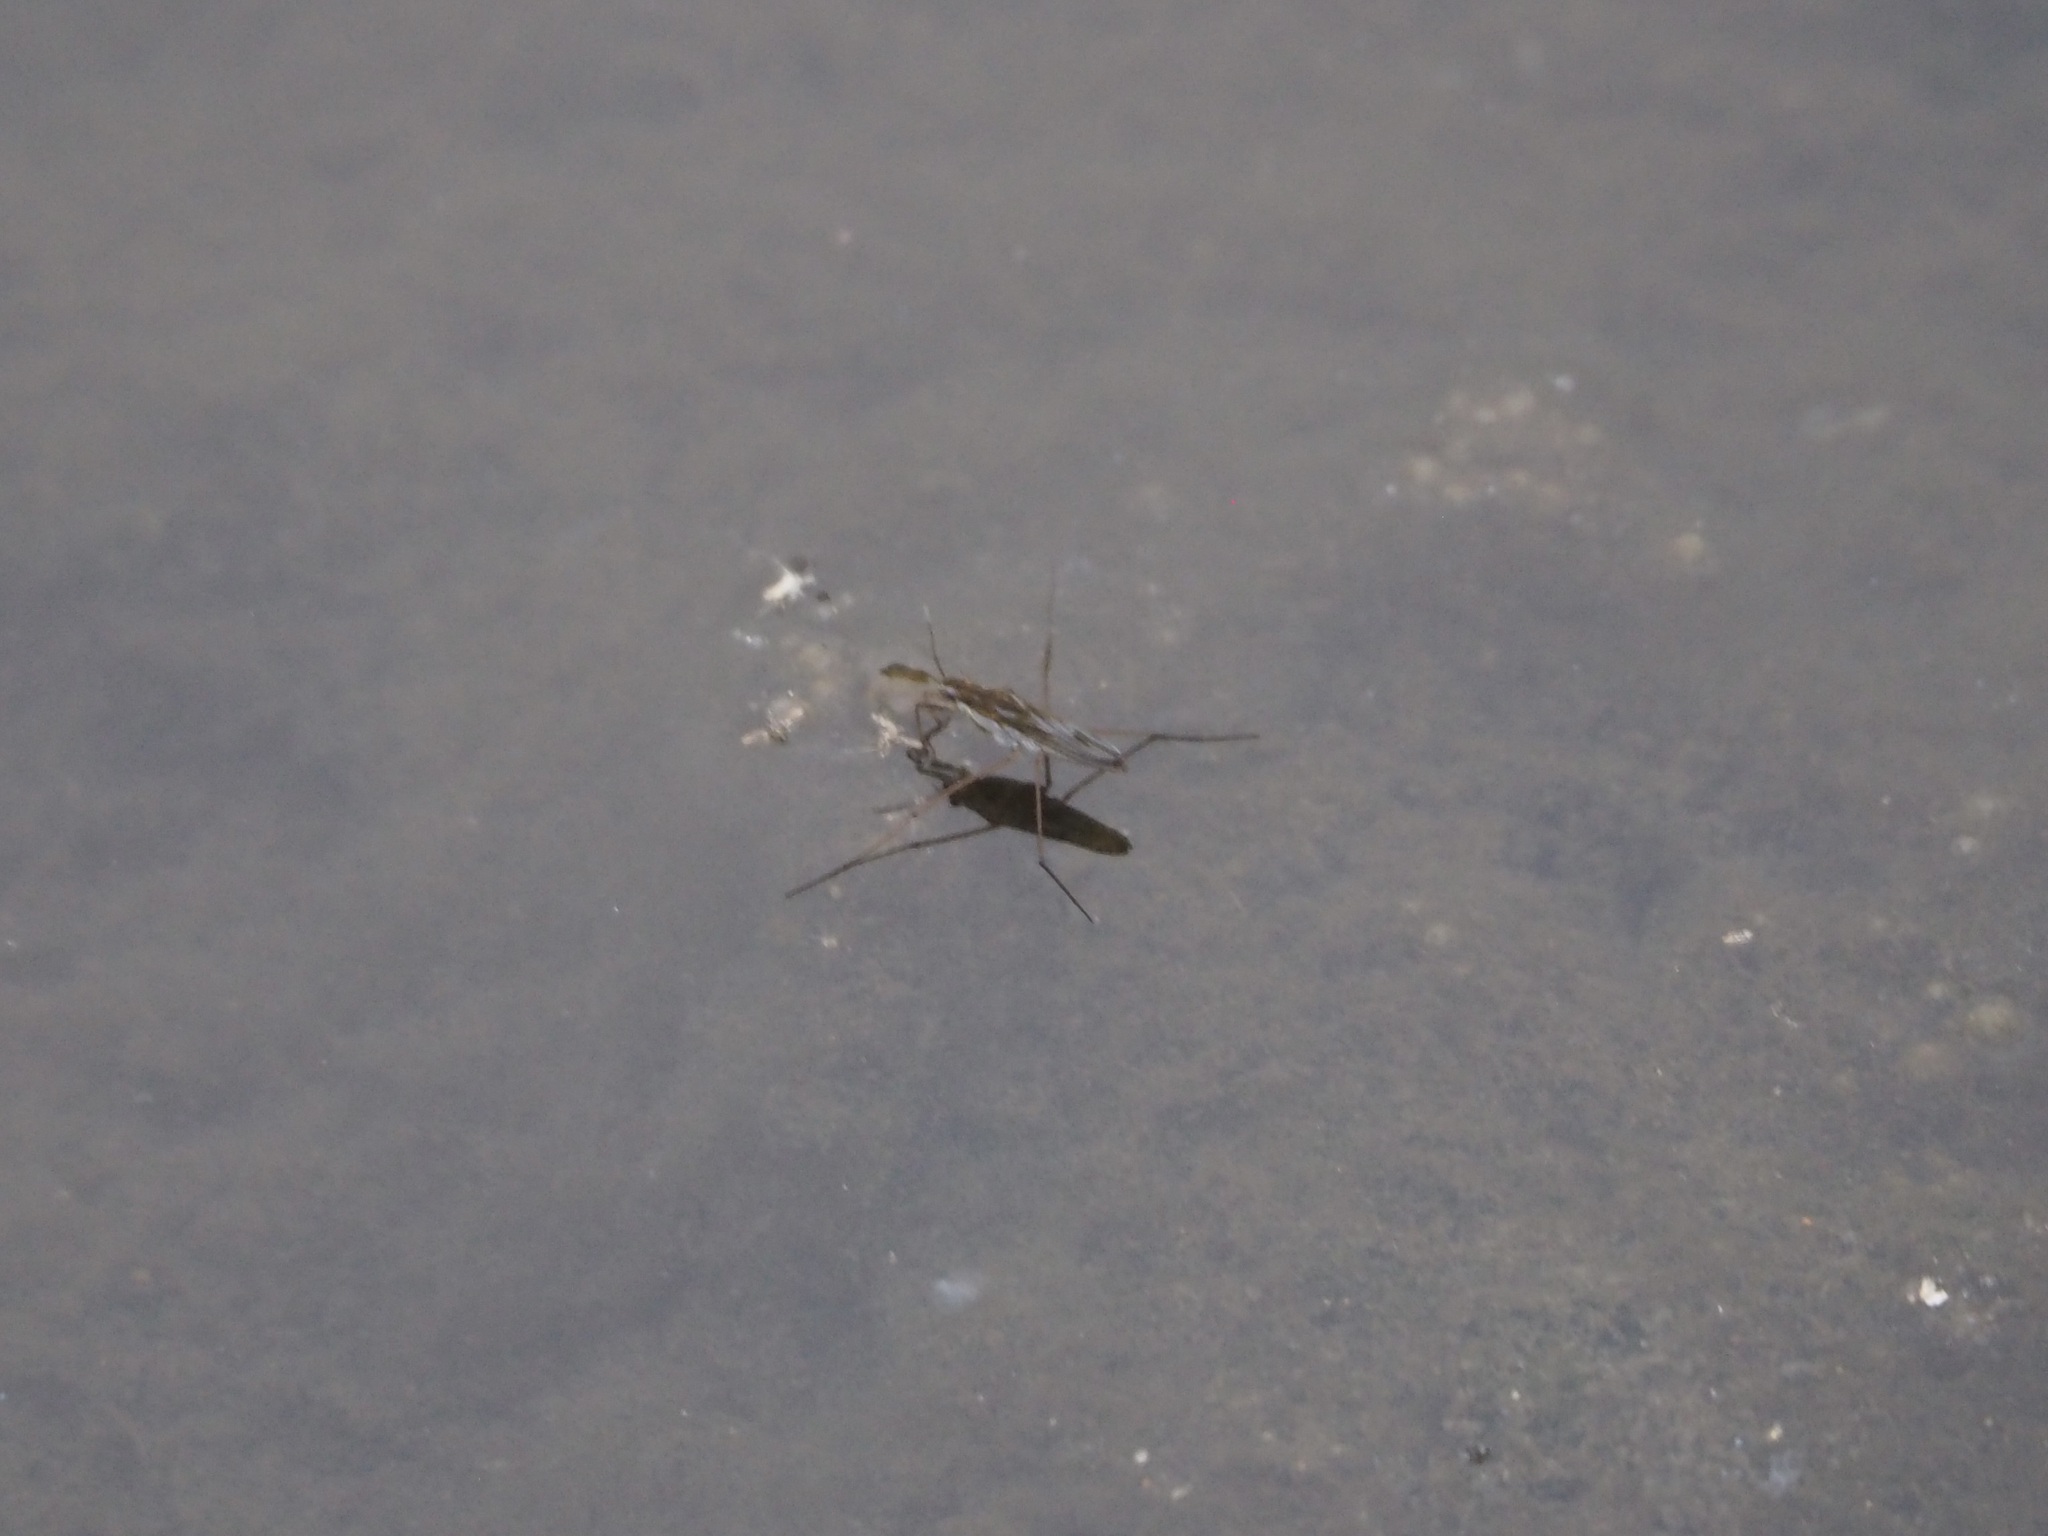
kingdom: Animalia
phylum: Arthropoda
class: Insecta
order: Hemiptera
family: Gerridae
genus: Gerris
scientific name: Gerris latiabdominis
